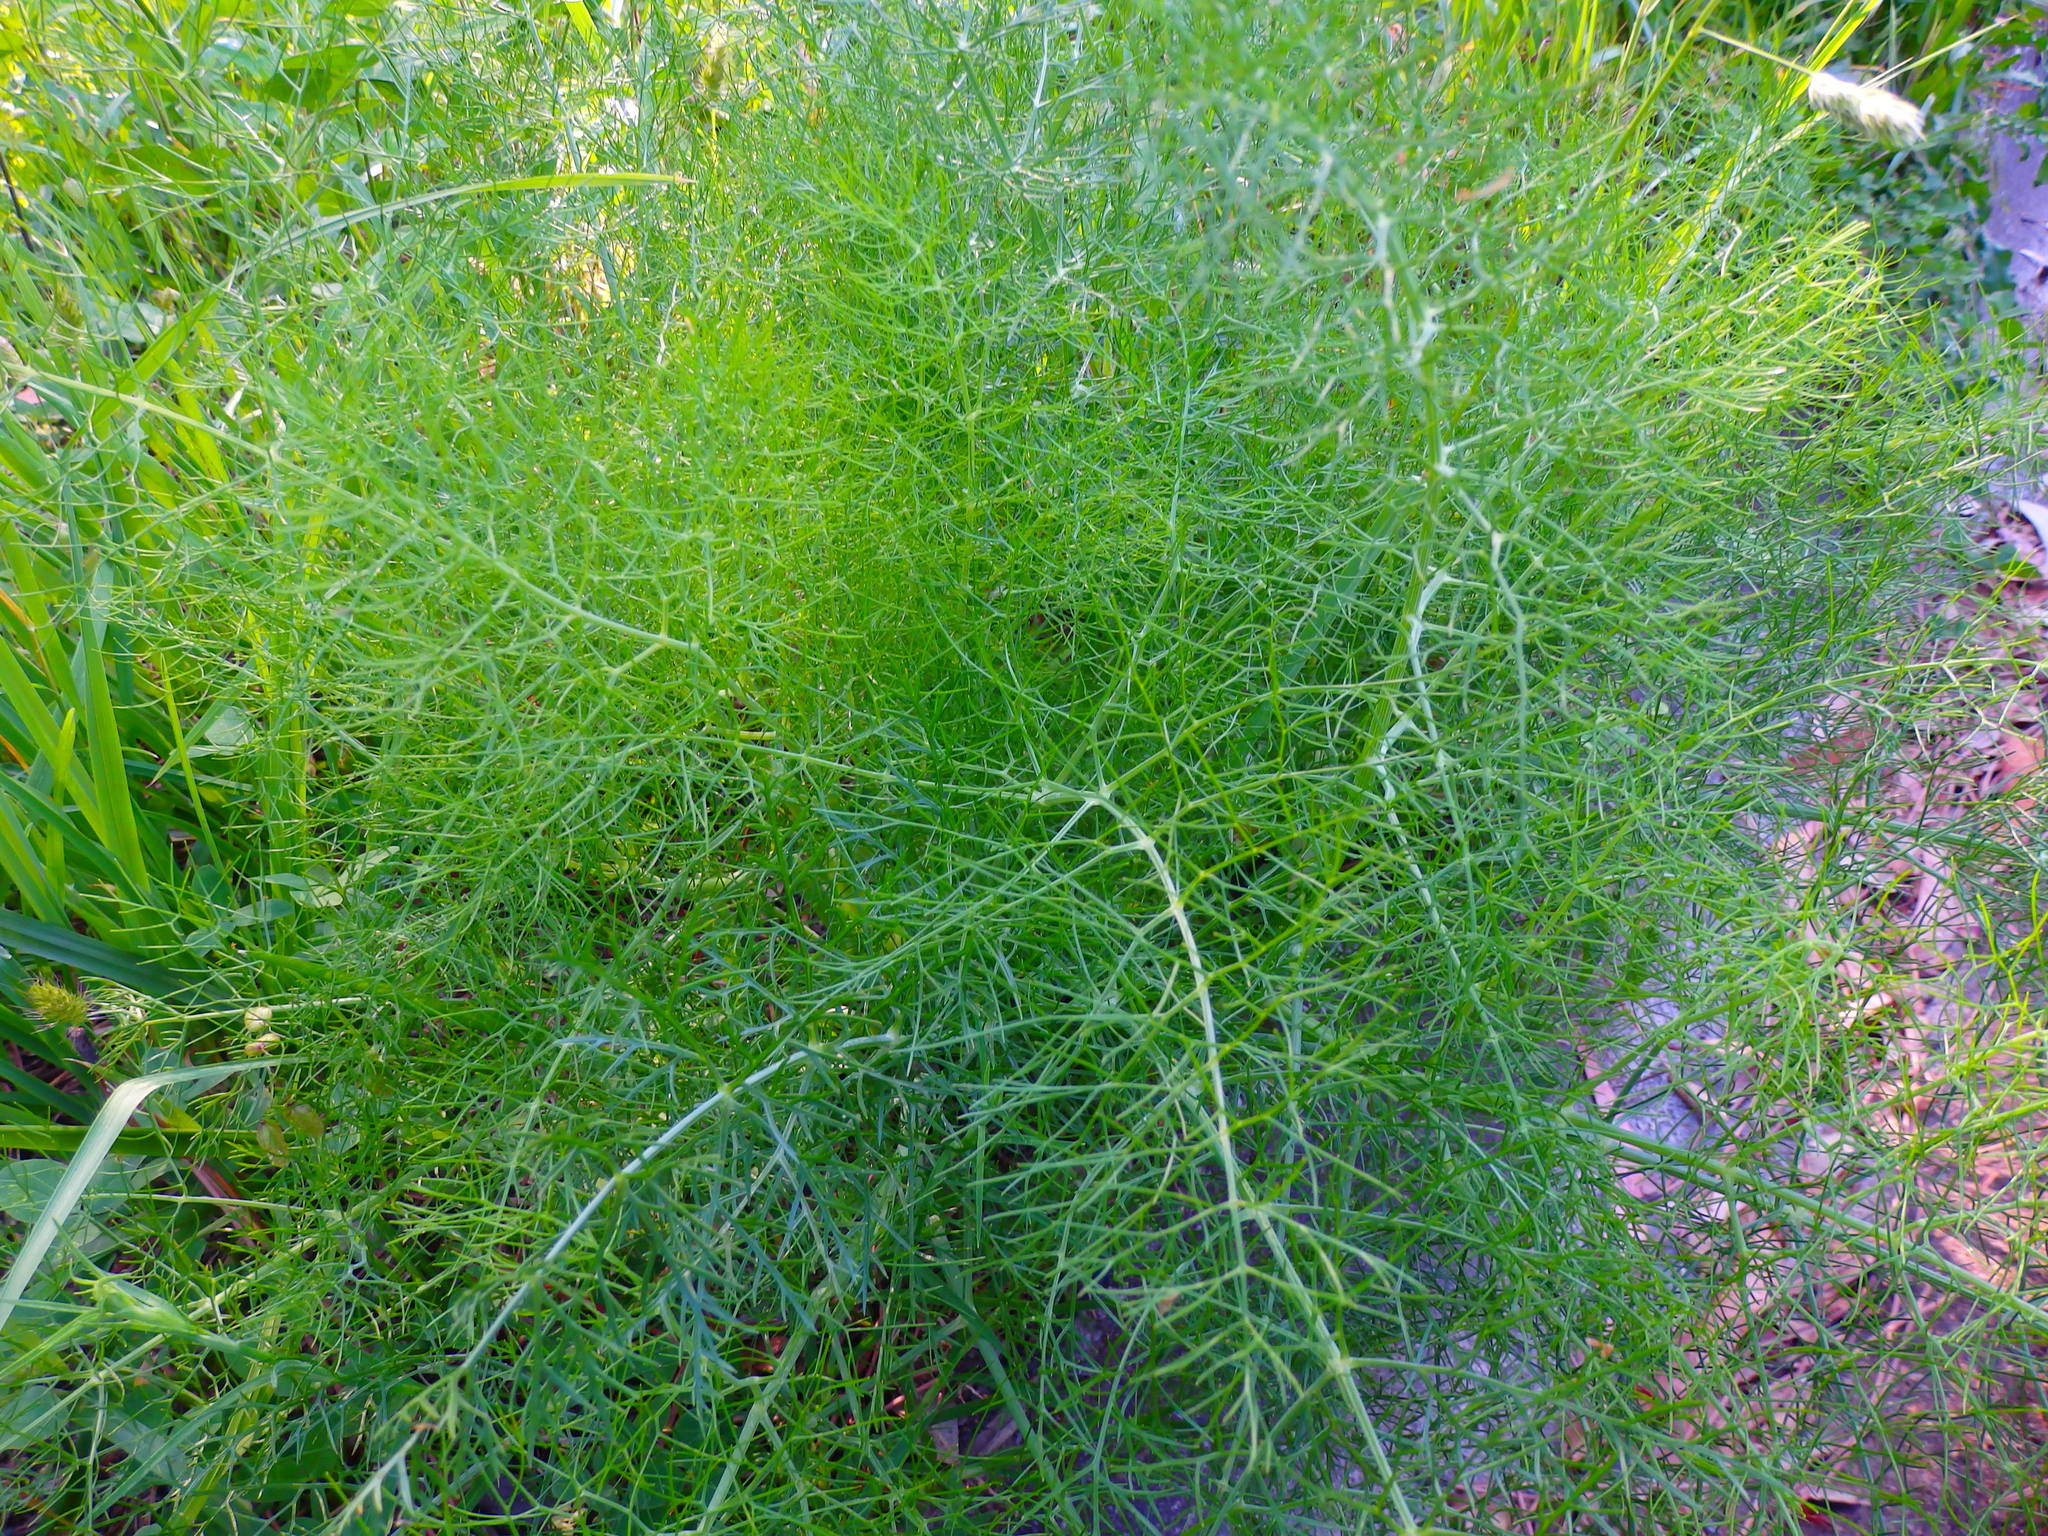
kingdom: Plantae
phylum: Tracheophyta
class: Magnoliopsida
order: Apiales
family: Apiaceae
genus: Foeniculum
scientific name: Foeniculum vulgare
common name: Fennel
